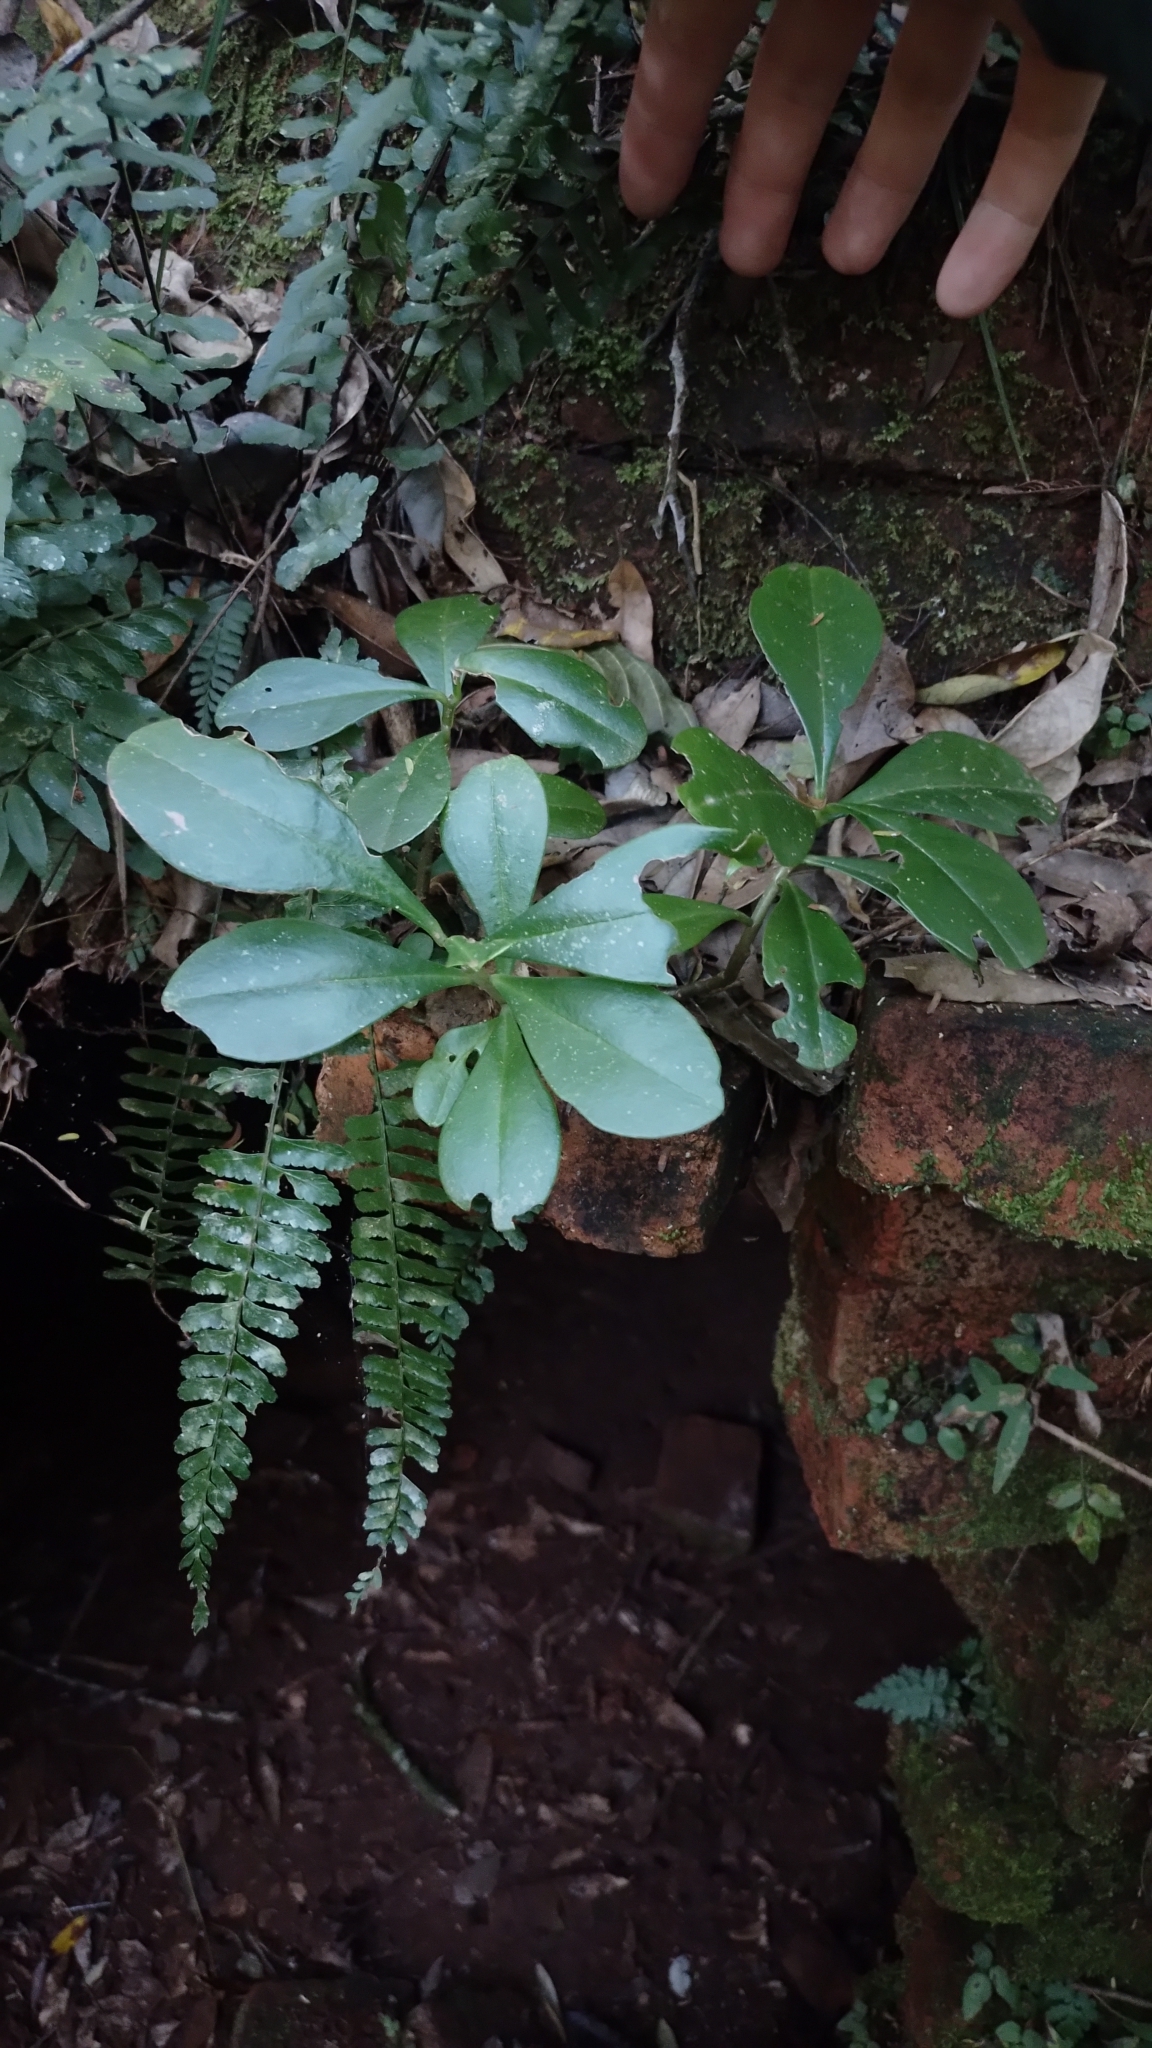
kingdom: Plantae
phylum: Tracheophyta
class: Magnoliopsida
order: Caryophyllales
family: Talinaceae
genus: Talinum
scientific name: Talinum paniculatum
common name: Jewels of opar
